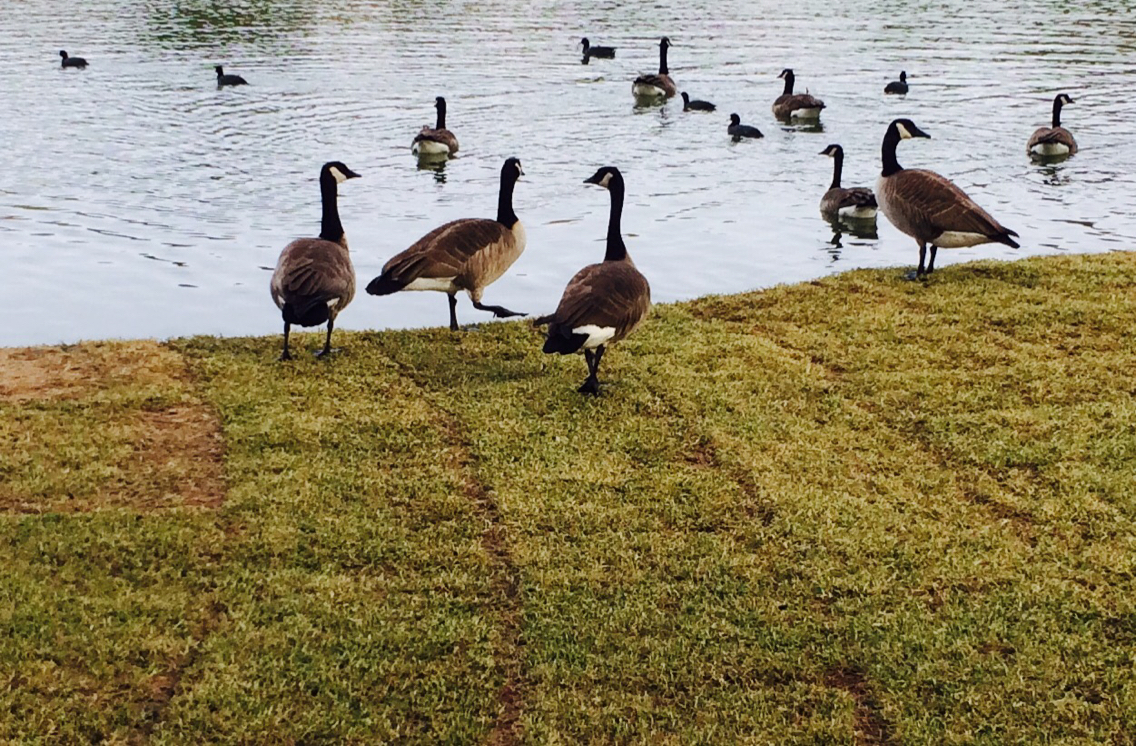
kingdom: Animalia
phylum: Chordata
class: Aves
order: Anseriformes
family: Anatidae
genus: Branta
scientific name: Branta canadensis
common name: Canada goose
